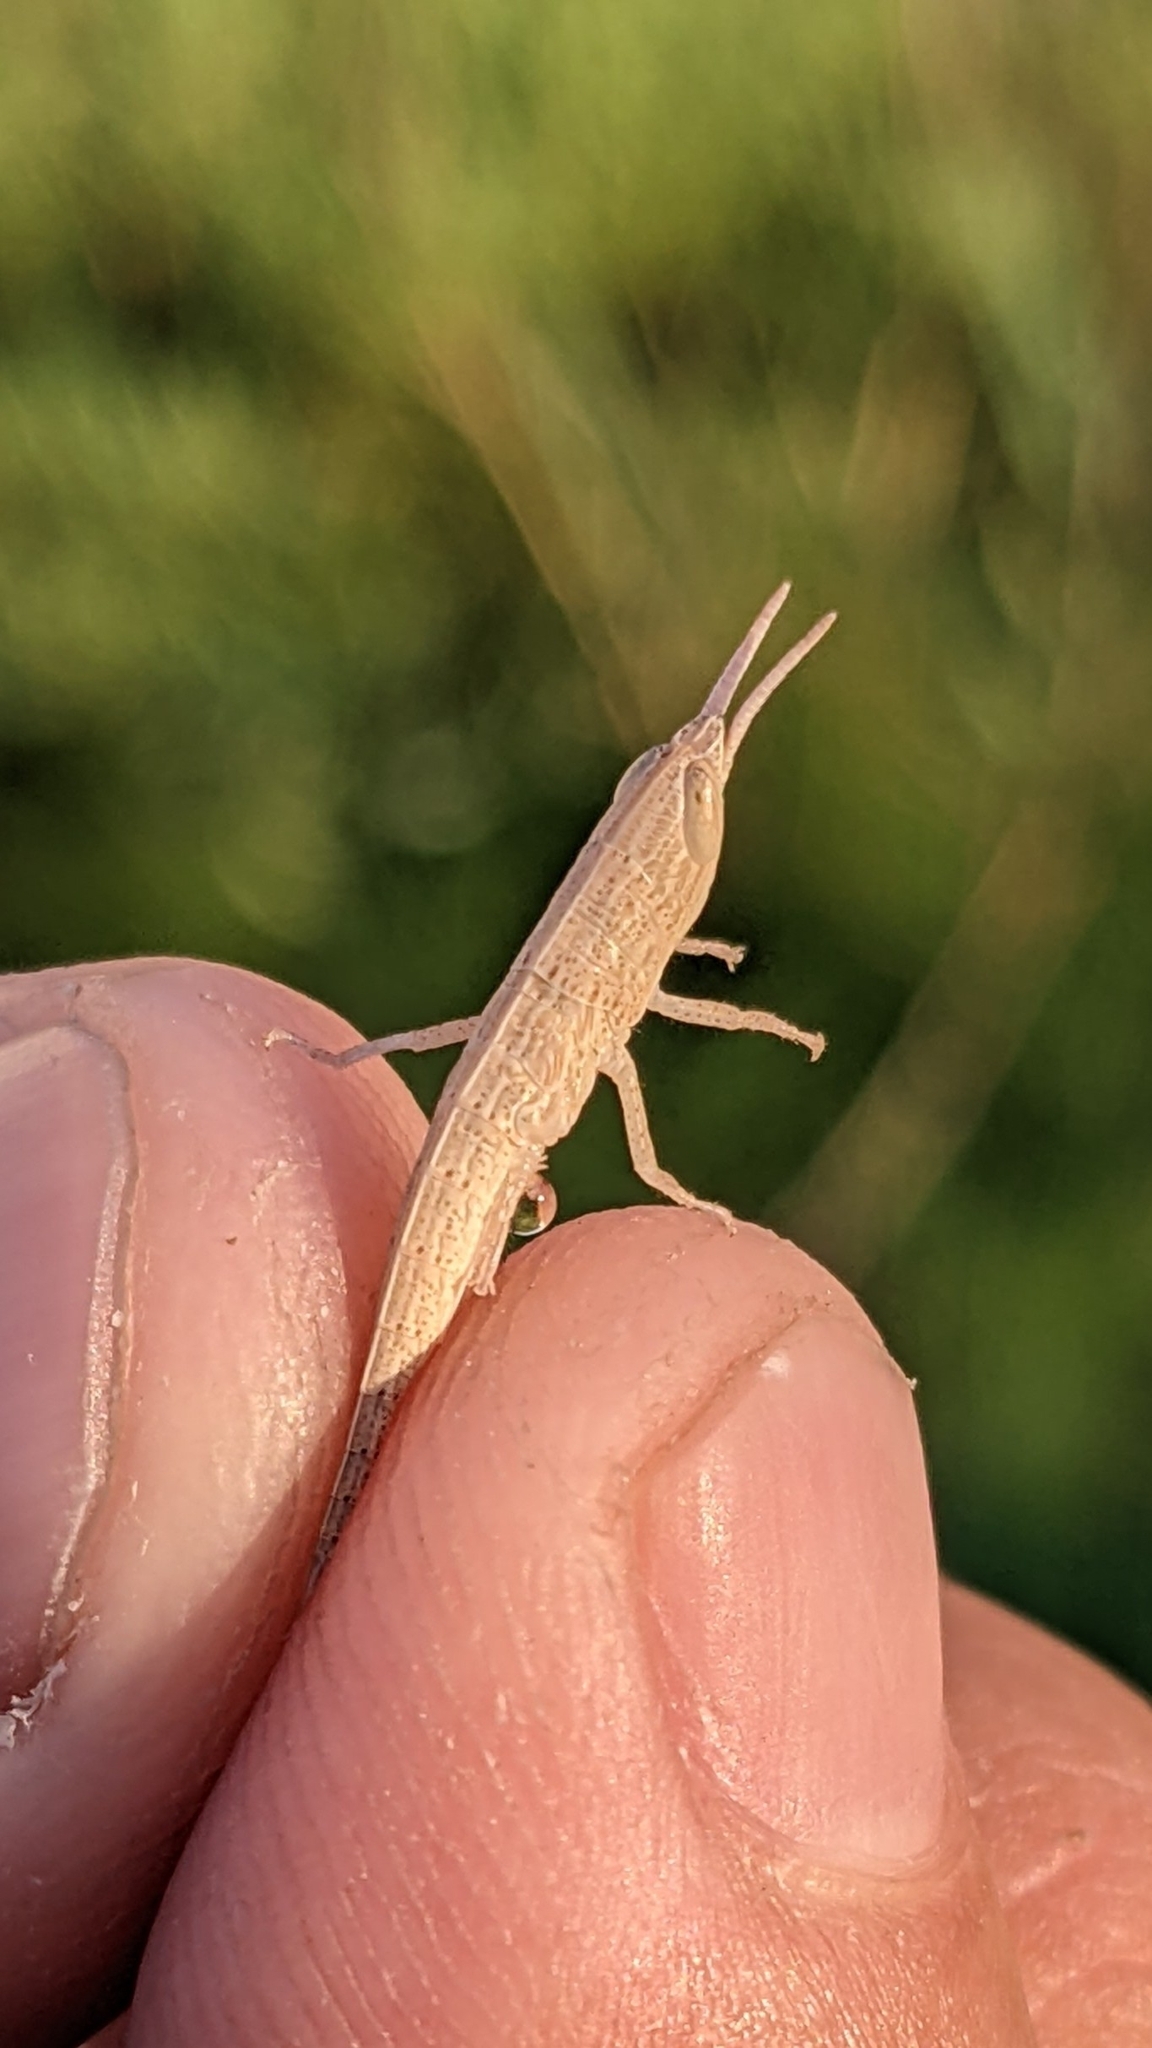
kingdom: Animalia
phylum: Arthropoda
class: Insecta
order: Orthoptera
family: Acrididae
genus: Tropidopola
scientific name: Tropidopola cylindrica
